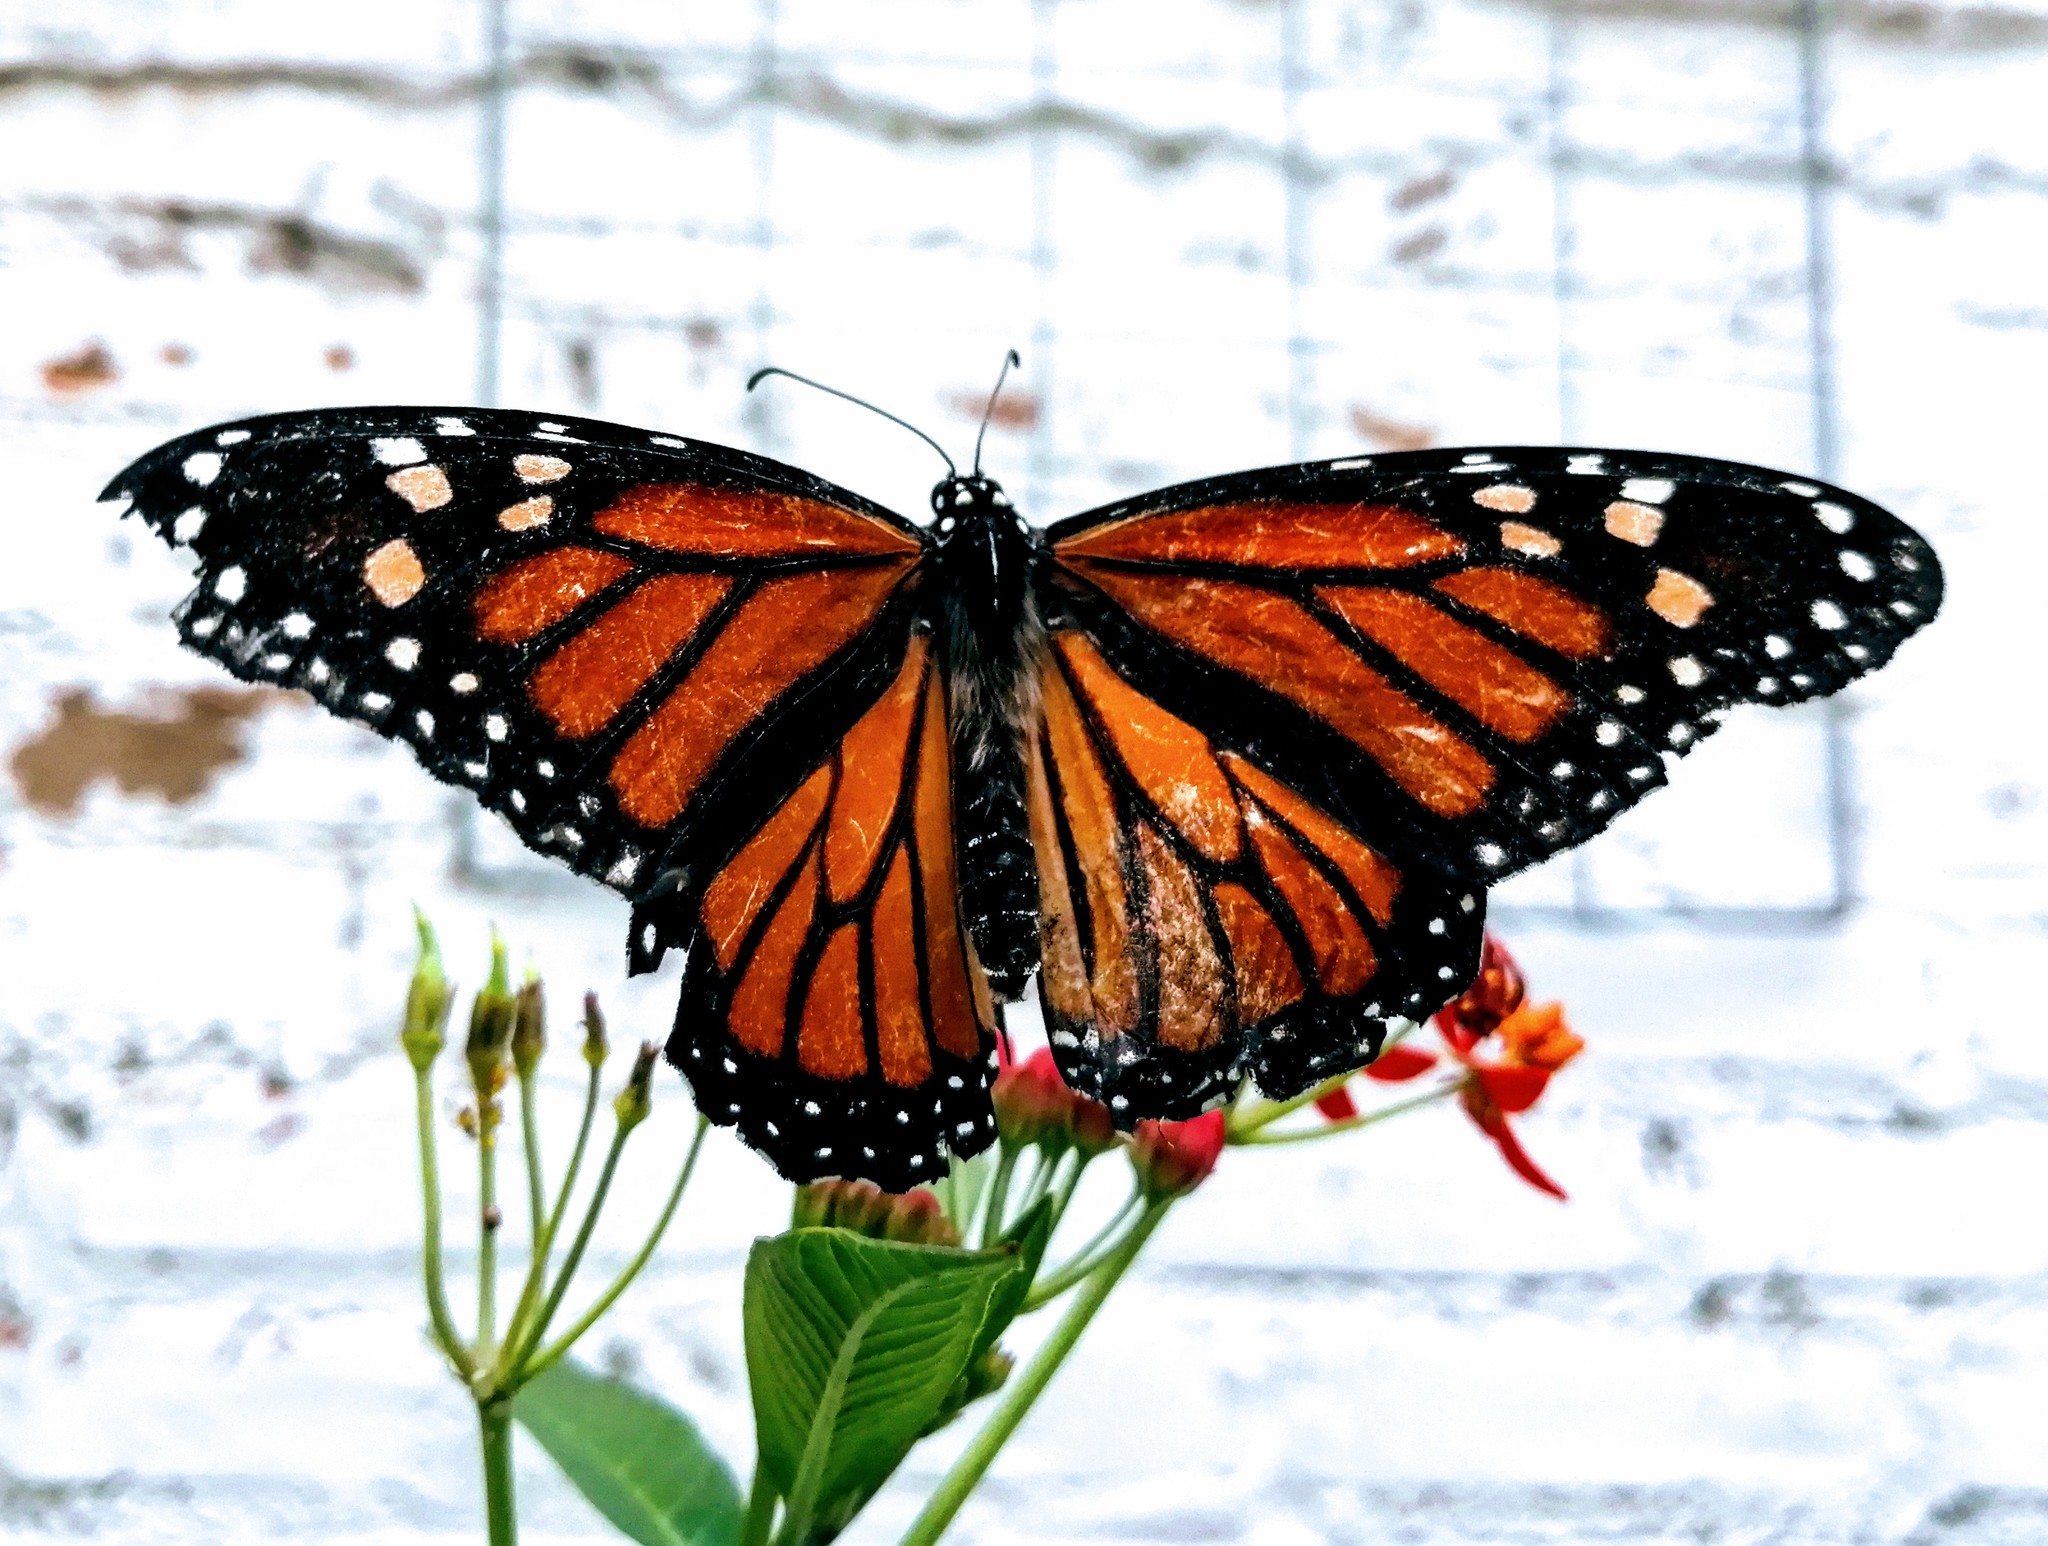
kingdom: Animalia
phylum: Arthropoda
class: Insecta
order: Lepidoptera
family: Nymphalidae
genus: Danaus
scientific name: Danaus plexippus
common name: Monarch
